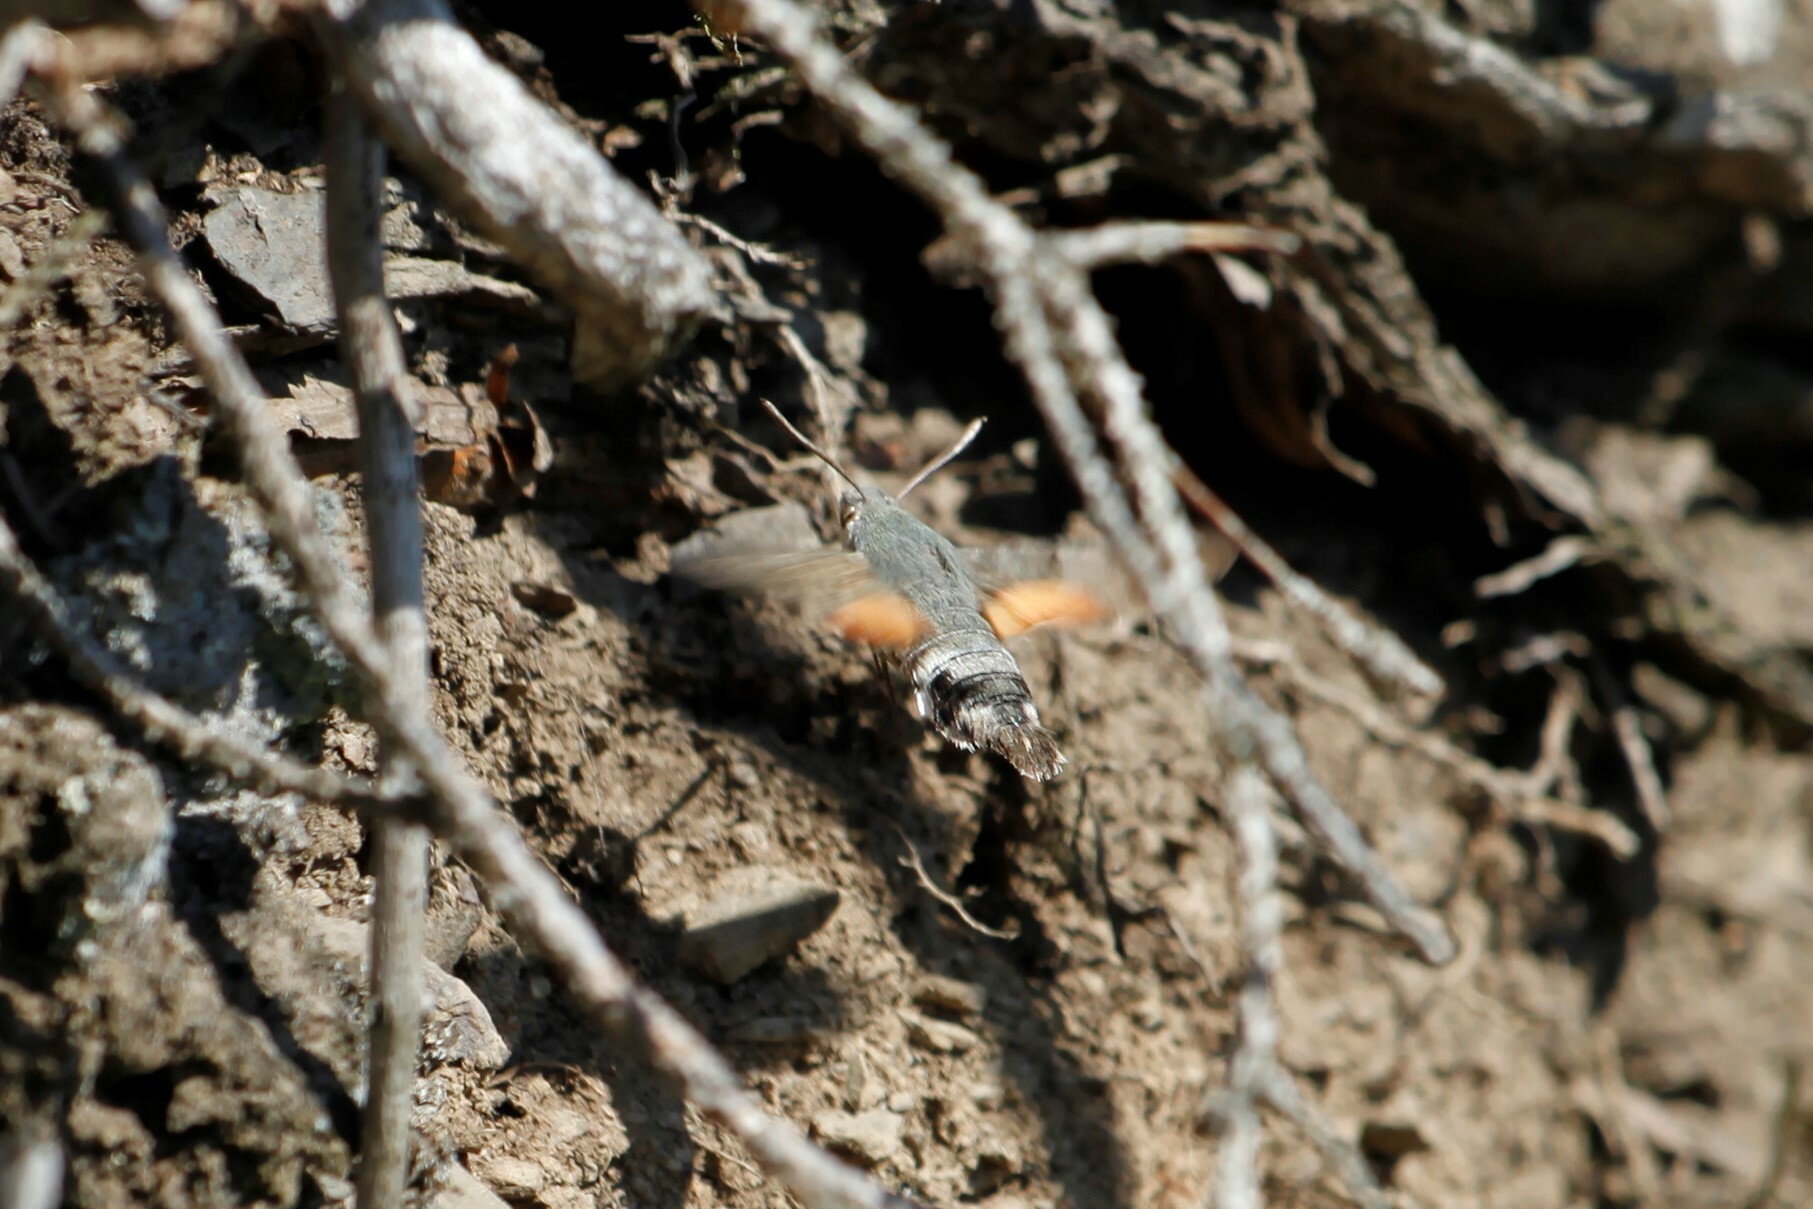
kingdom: Animalia
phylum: Arthropoda
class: Insecta
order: Lepidoptera
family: Sphingidae
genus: Macroglossum
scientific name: Macroglossum stellatarum
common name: Humming-bird hawk-moth
